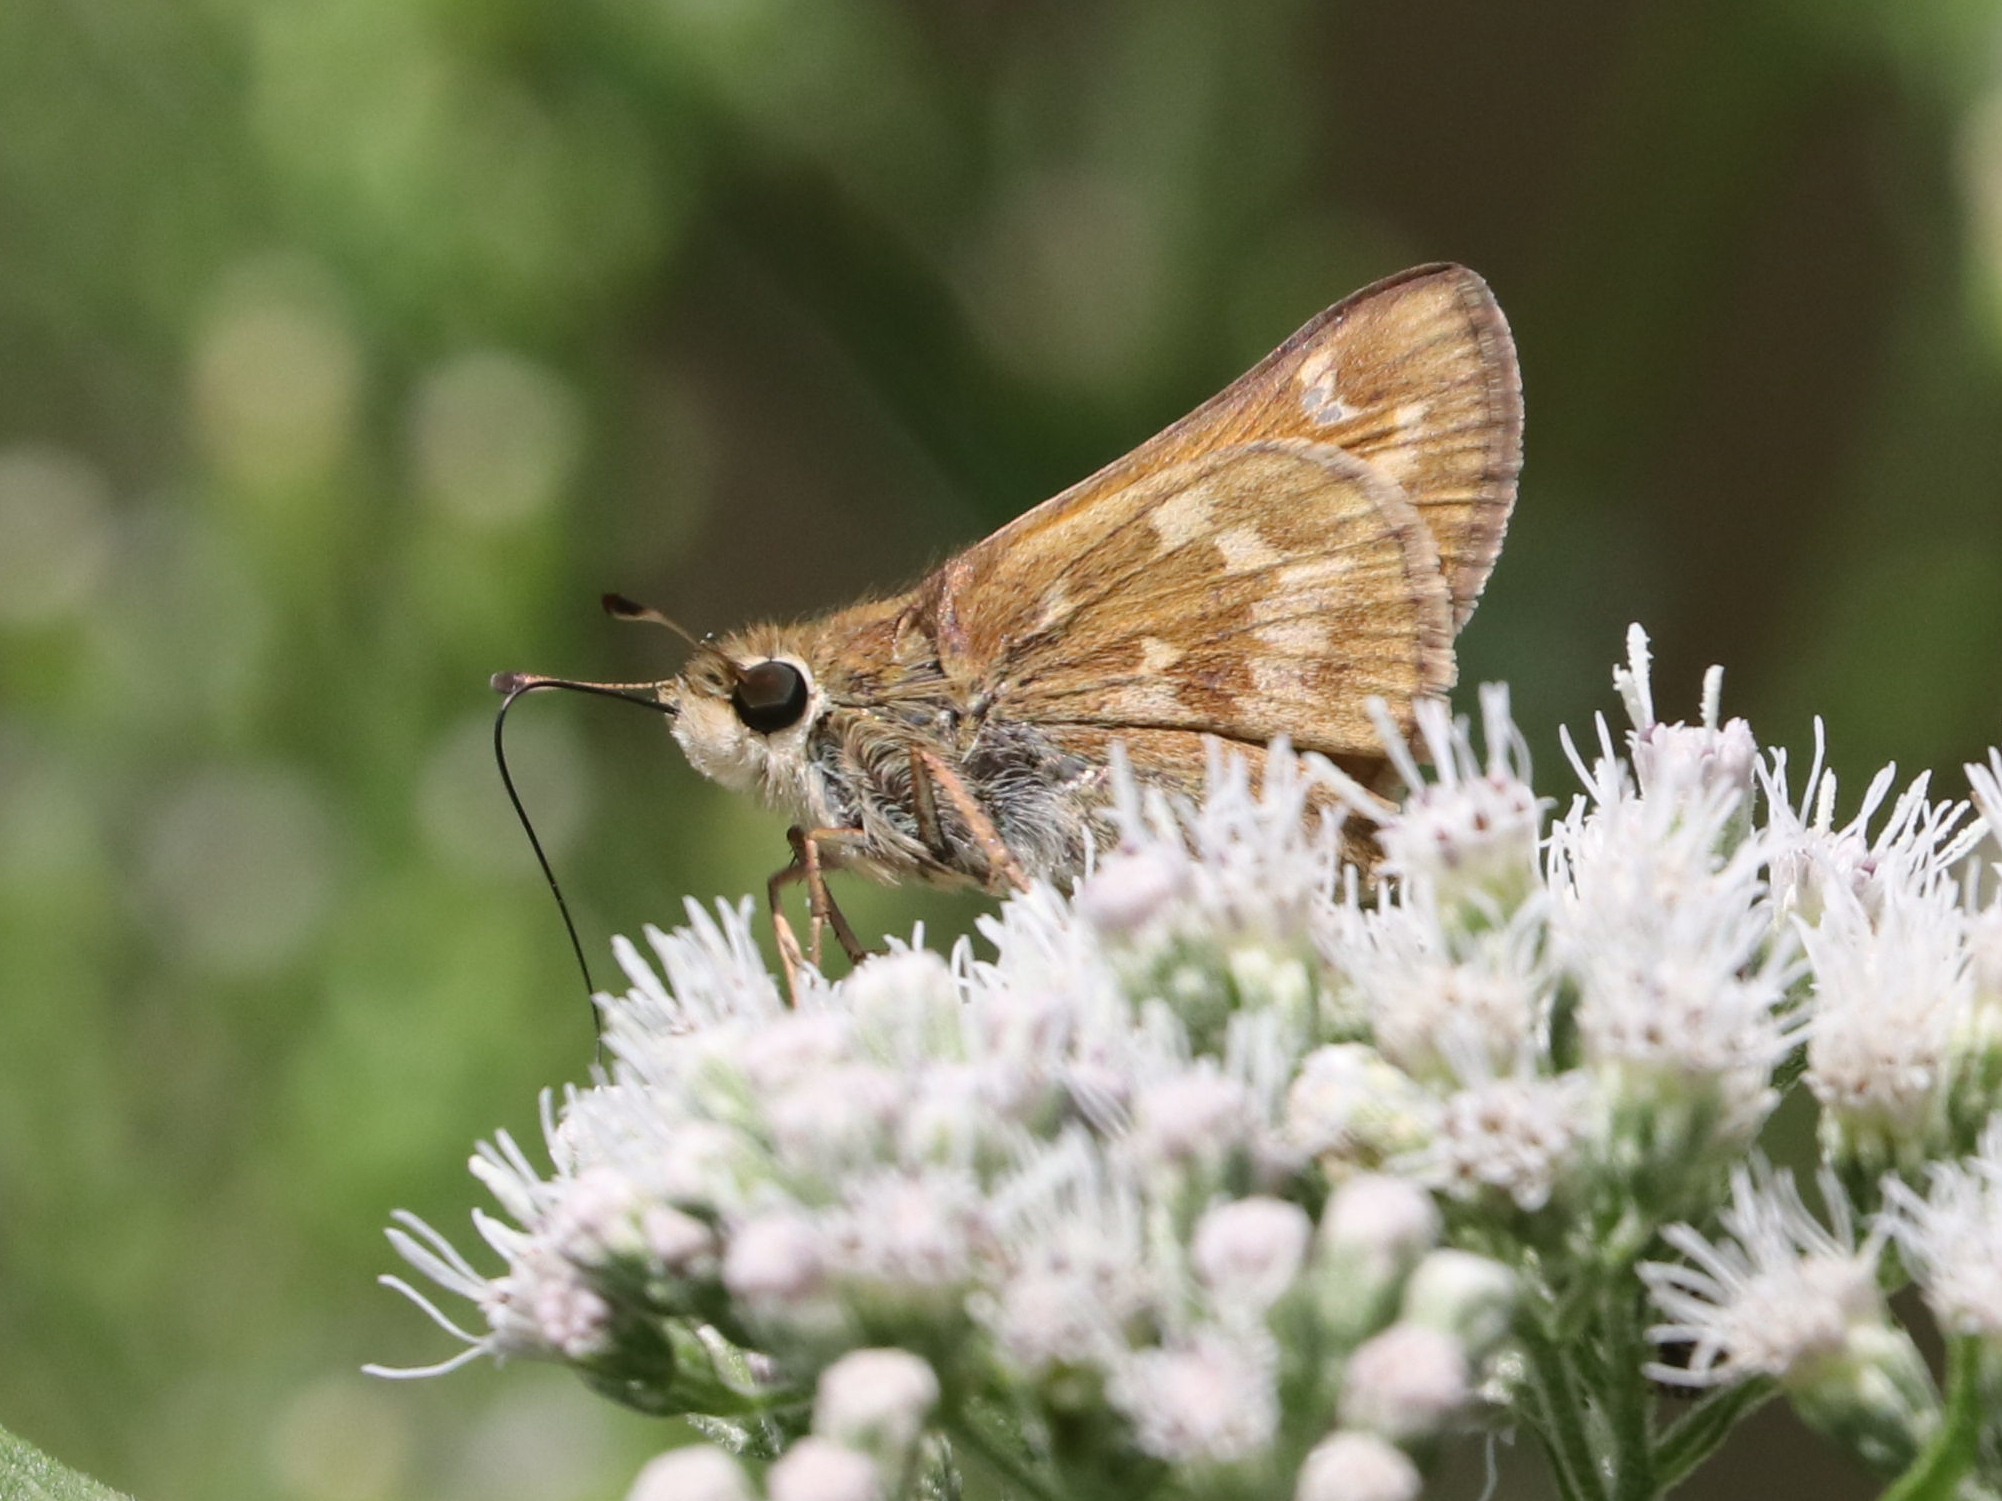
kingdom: Animalia
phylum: Arthropoda
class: Insecta
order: Lepidoptera
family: Hesperiidae
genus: Atalopedes
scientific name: Atalopedes
